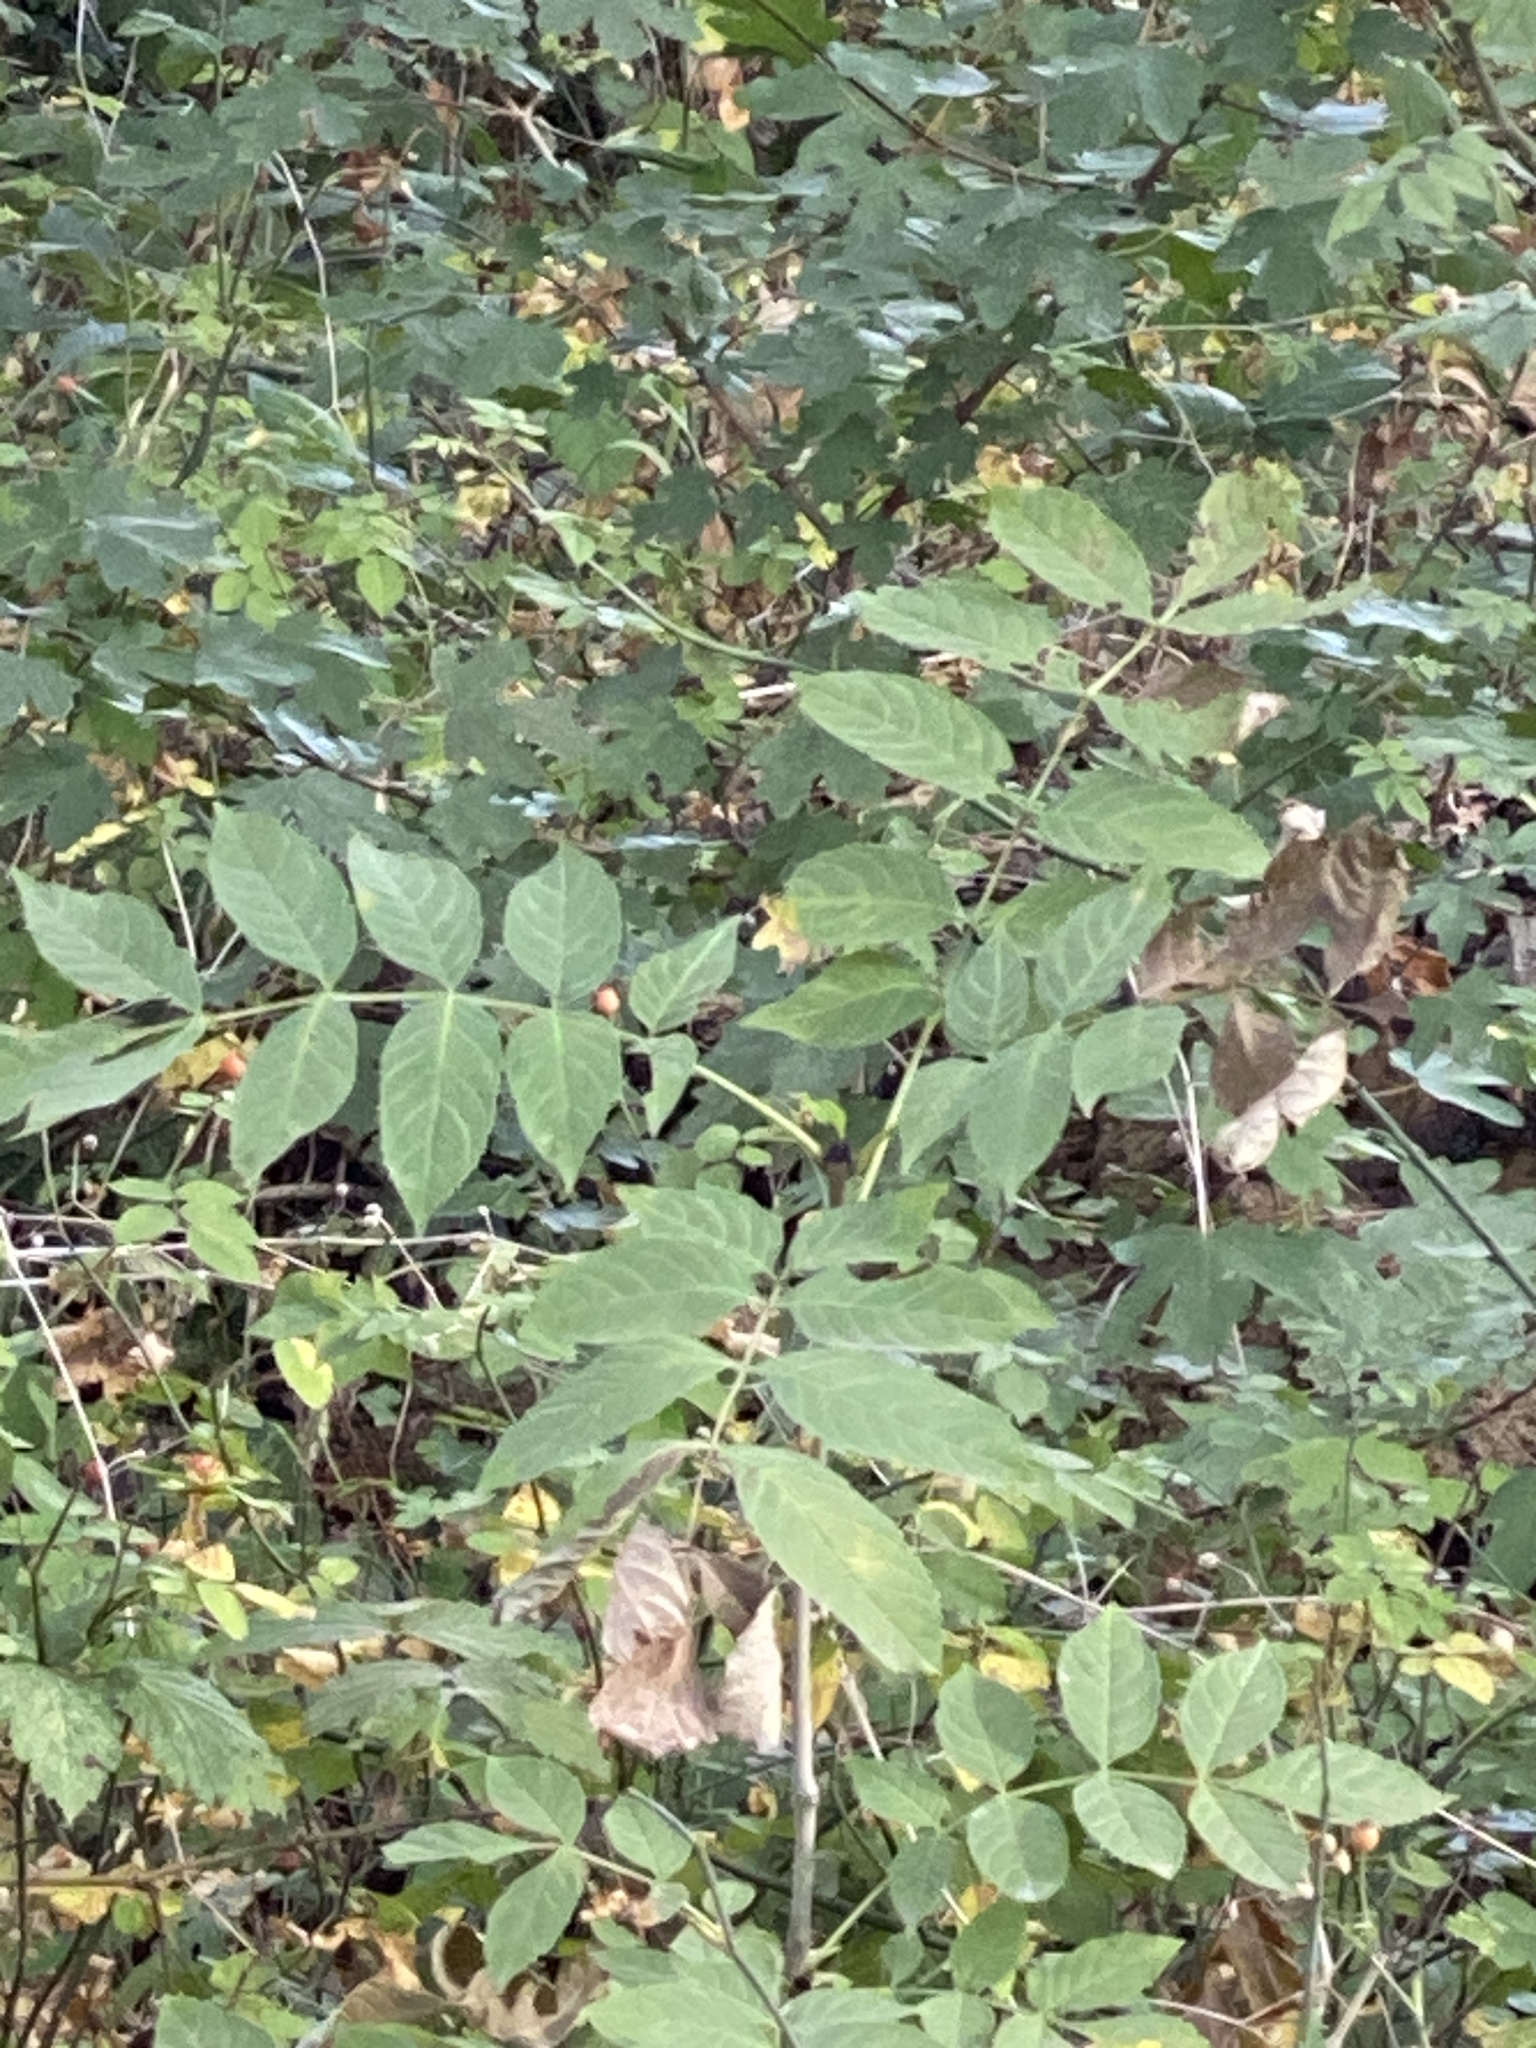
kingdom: Plantae
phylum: Tracheophyta
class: Magnoliopsida
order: Lamiales
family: Oleaceae
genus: Fraxinus
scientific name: Fraxinus excelsior
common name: European ash
